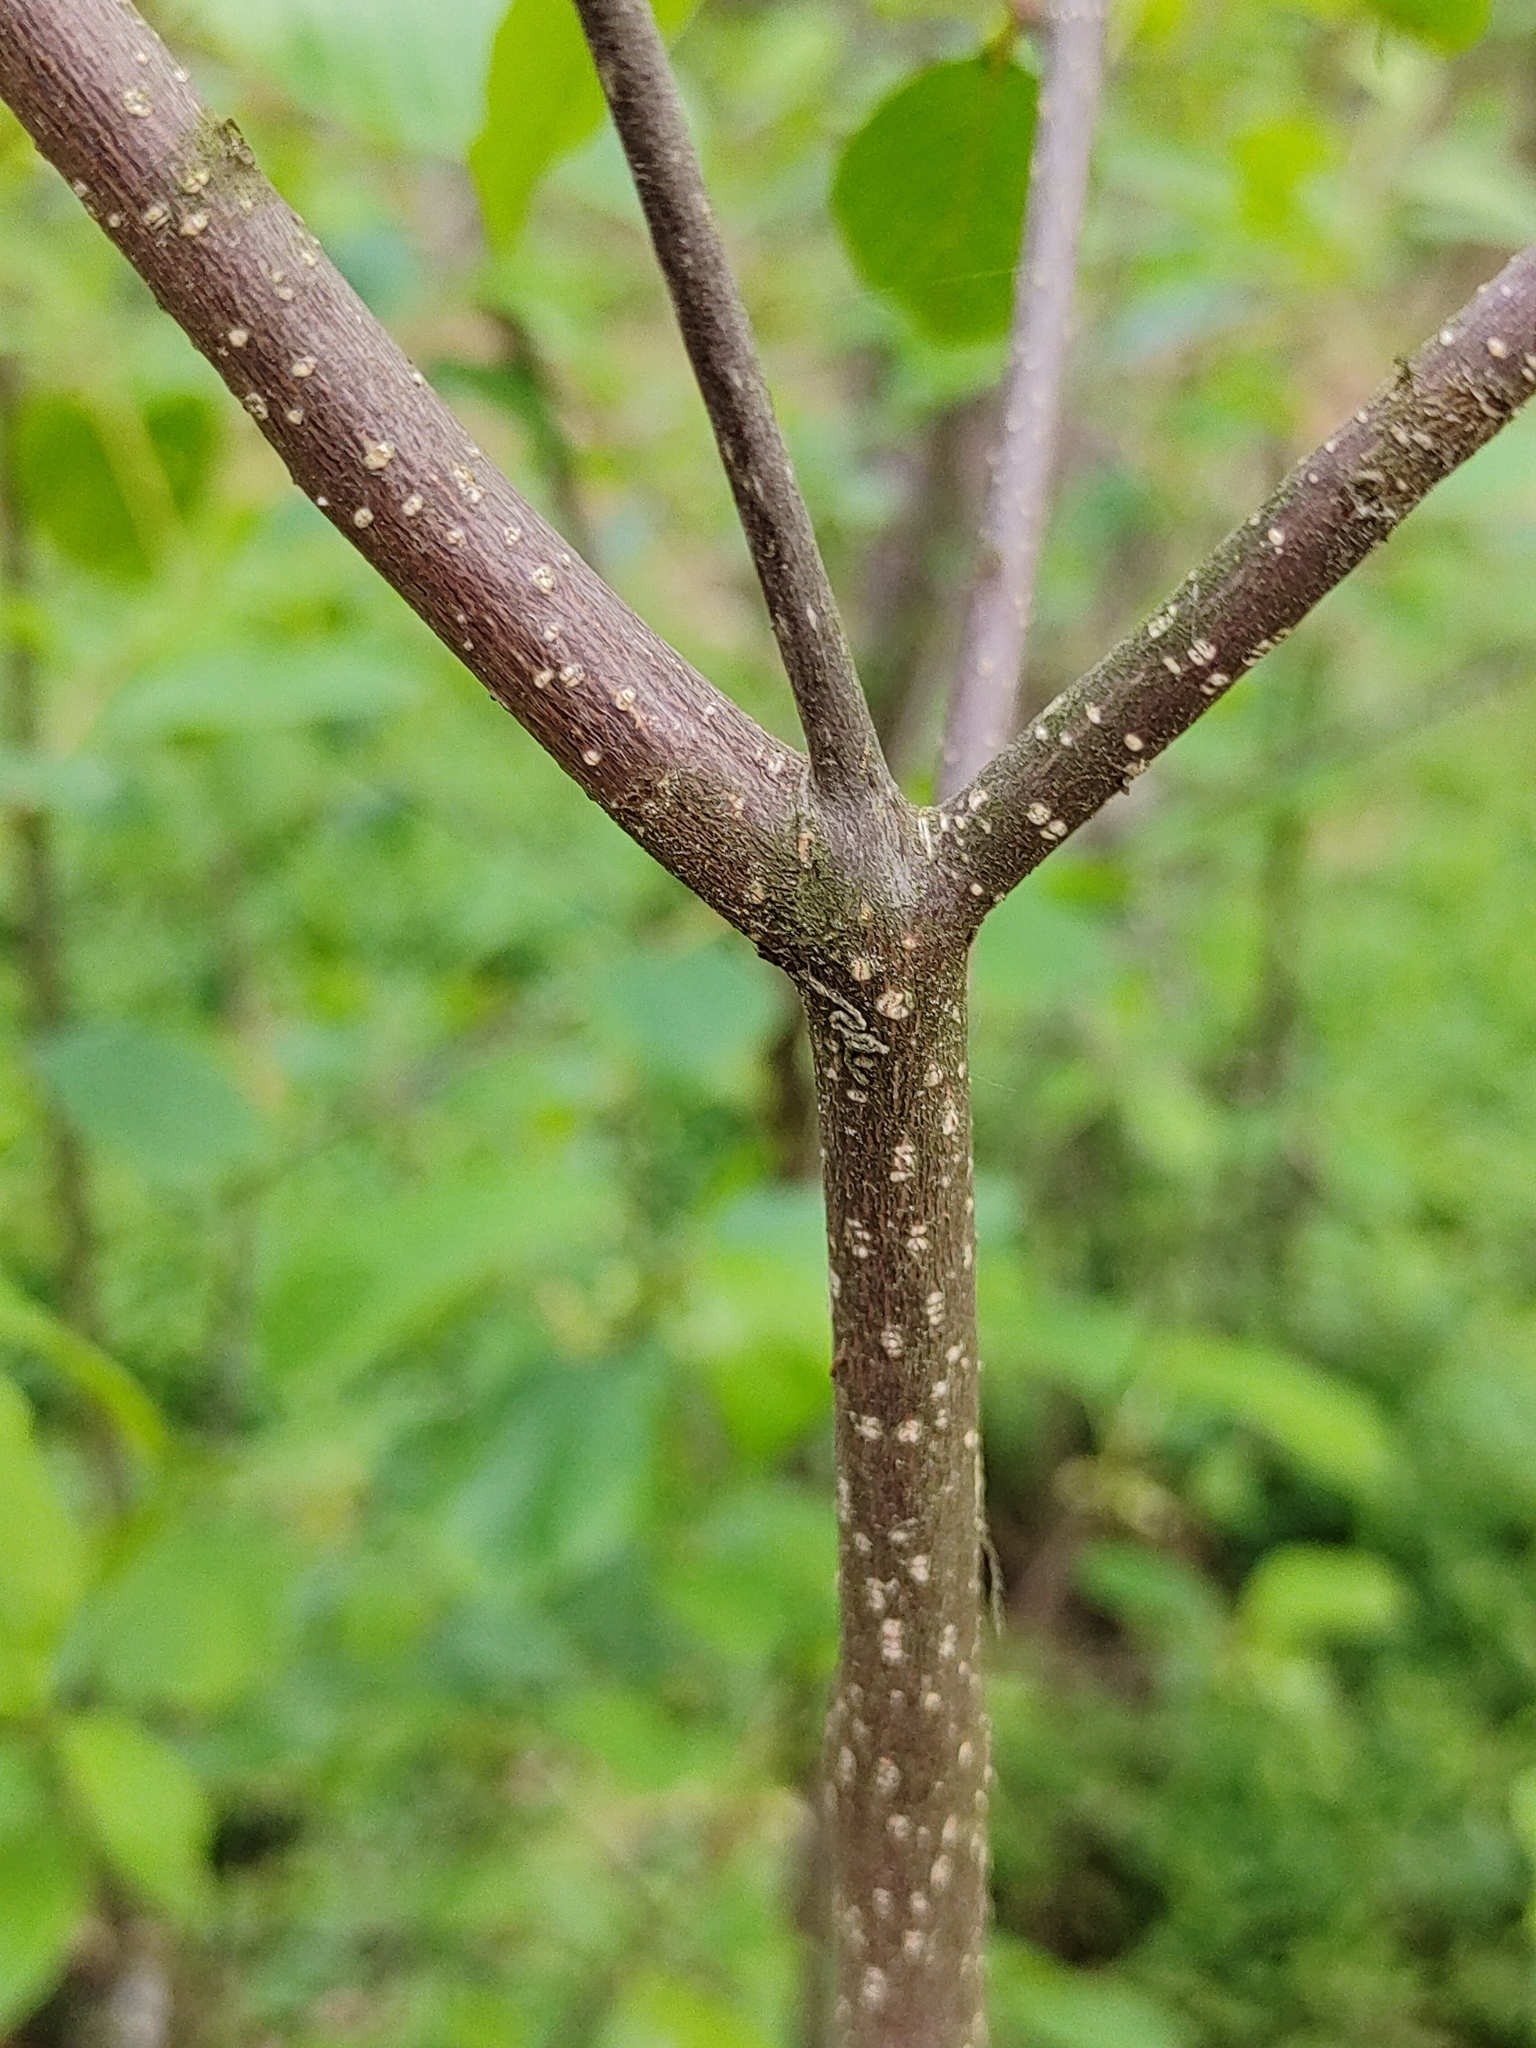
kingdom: Plantae
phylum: Tracheophyta
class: Magnoliopsida
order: Rosales
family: Rhamnaceae
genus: Frangula
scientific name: Frangula alnus
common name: Alder buckthorn
